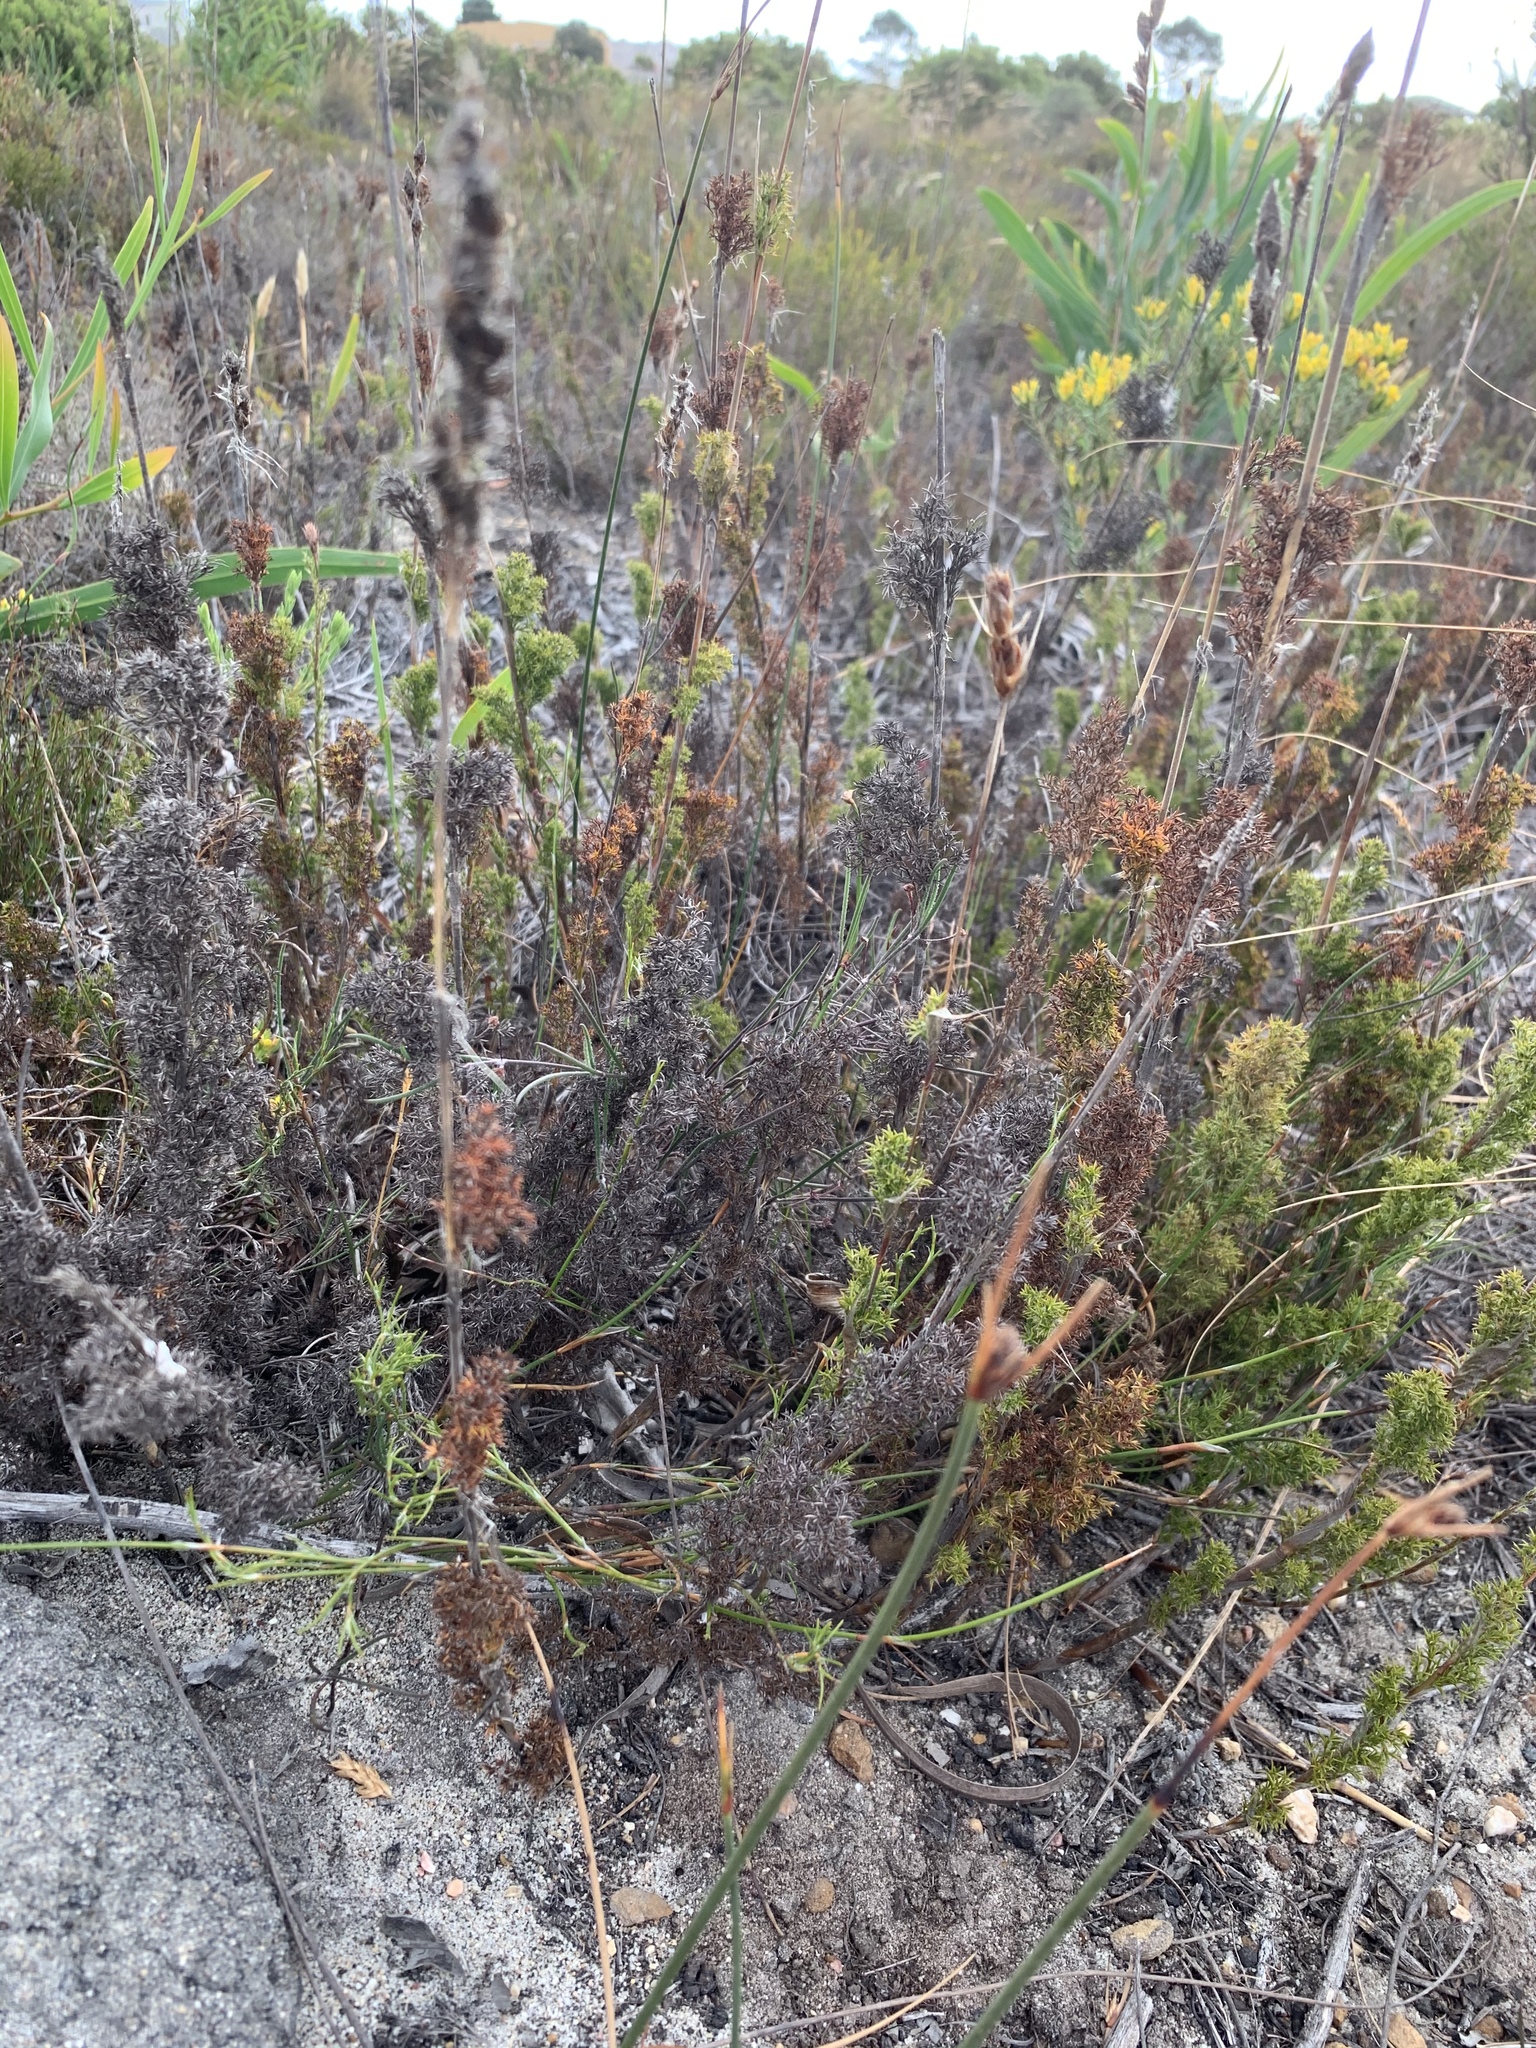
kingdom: Plantae
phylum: Tracheophyta
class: Liliopsida
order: Poales
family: Restionaceae
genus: Thamnochortus
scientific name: Thamnochortus fruticosus
